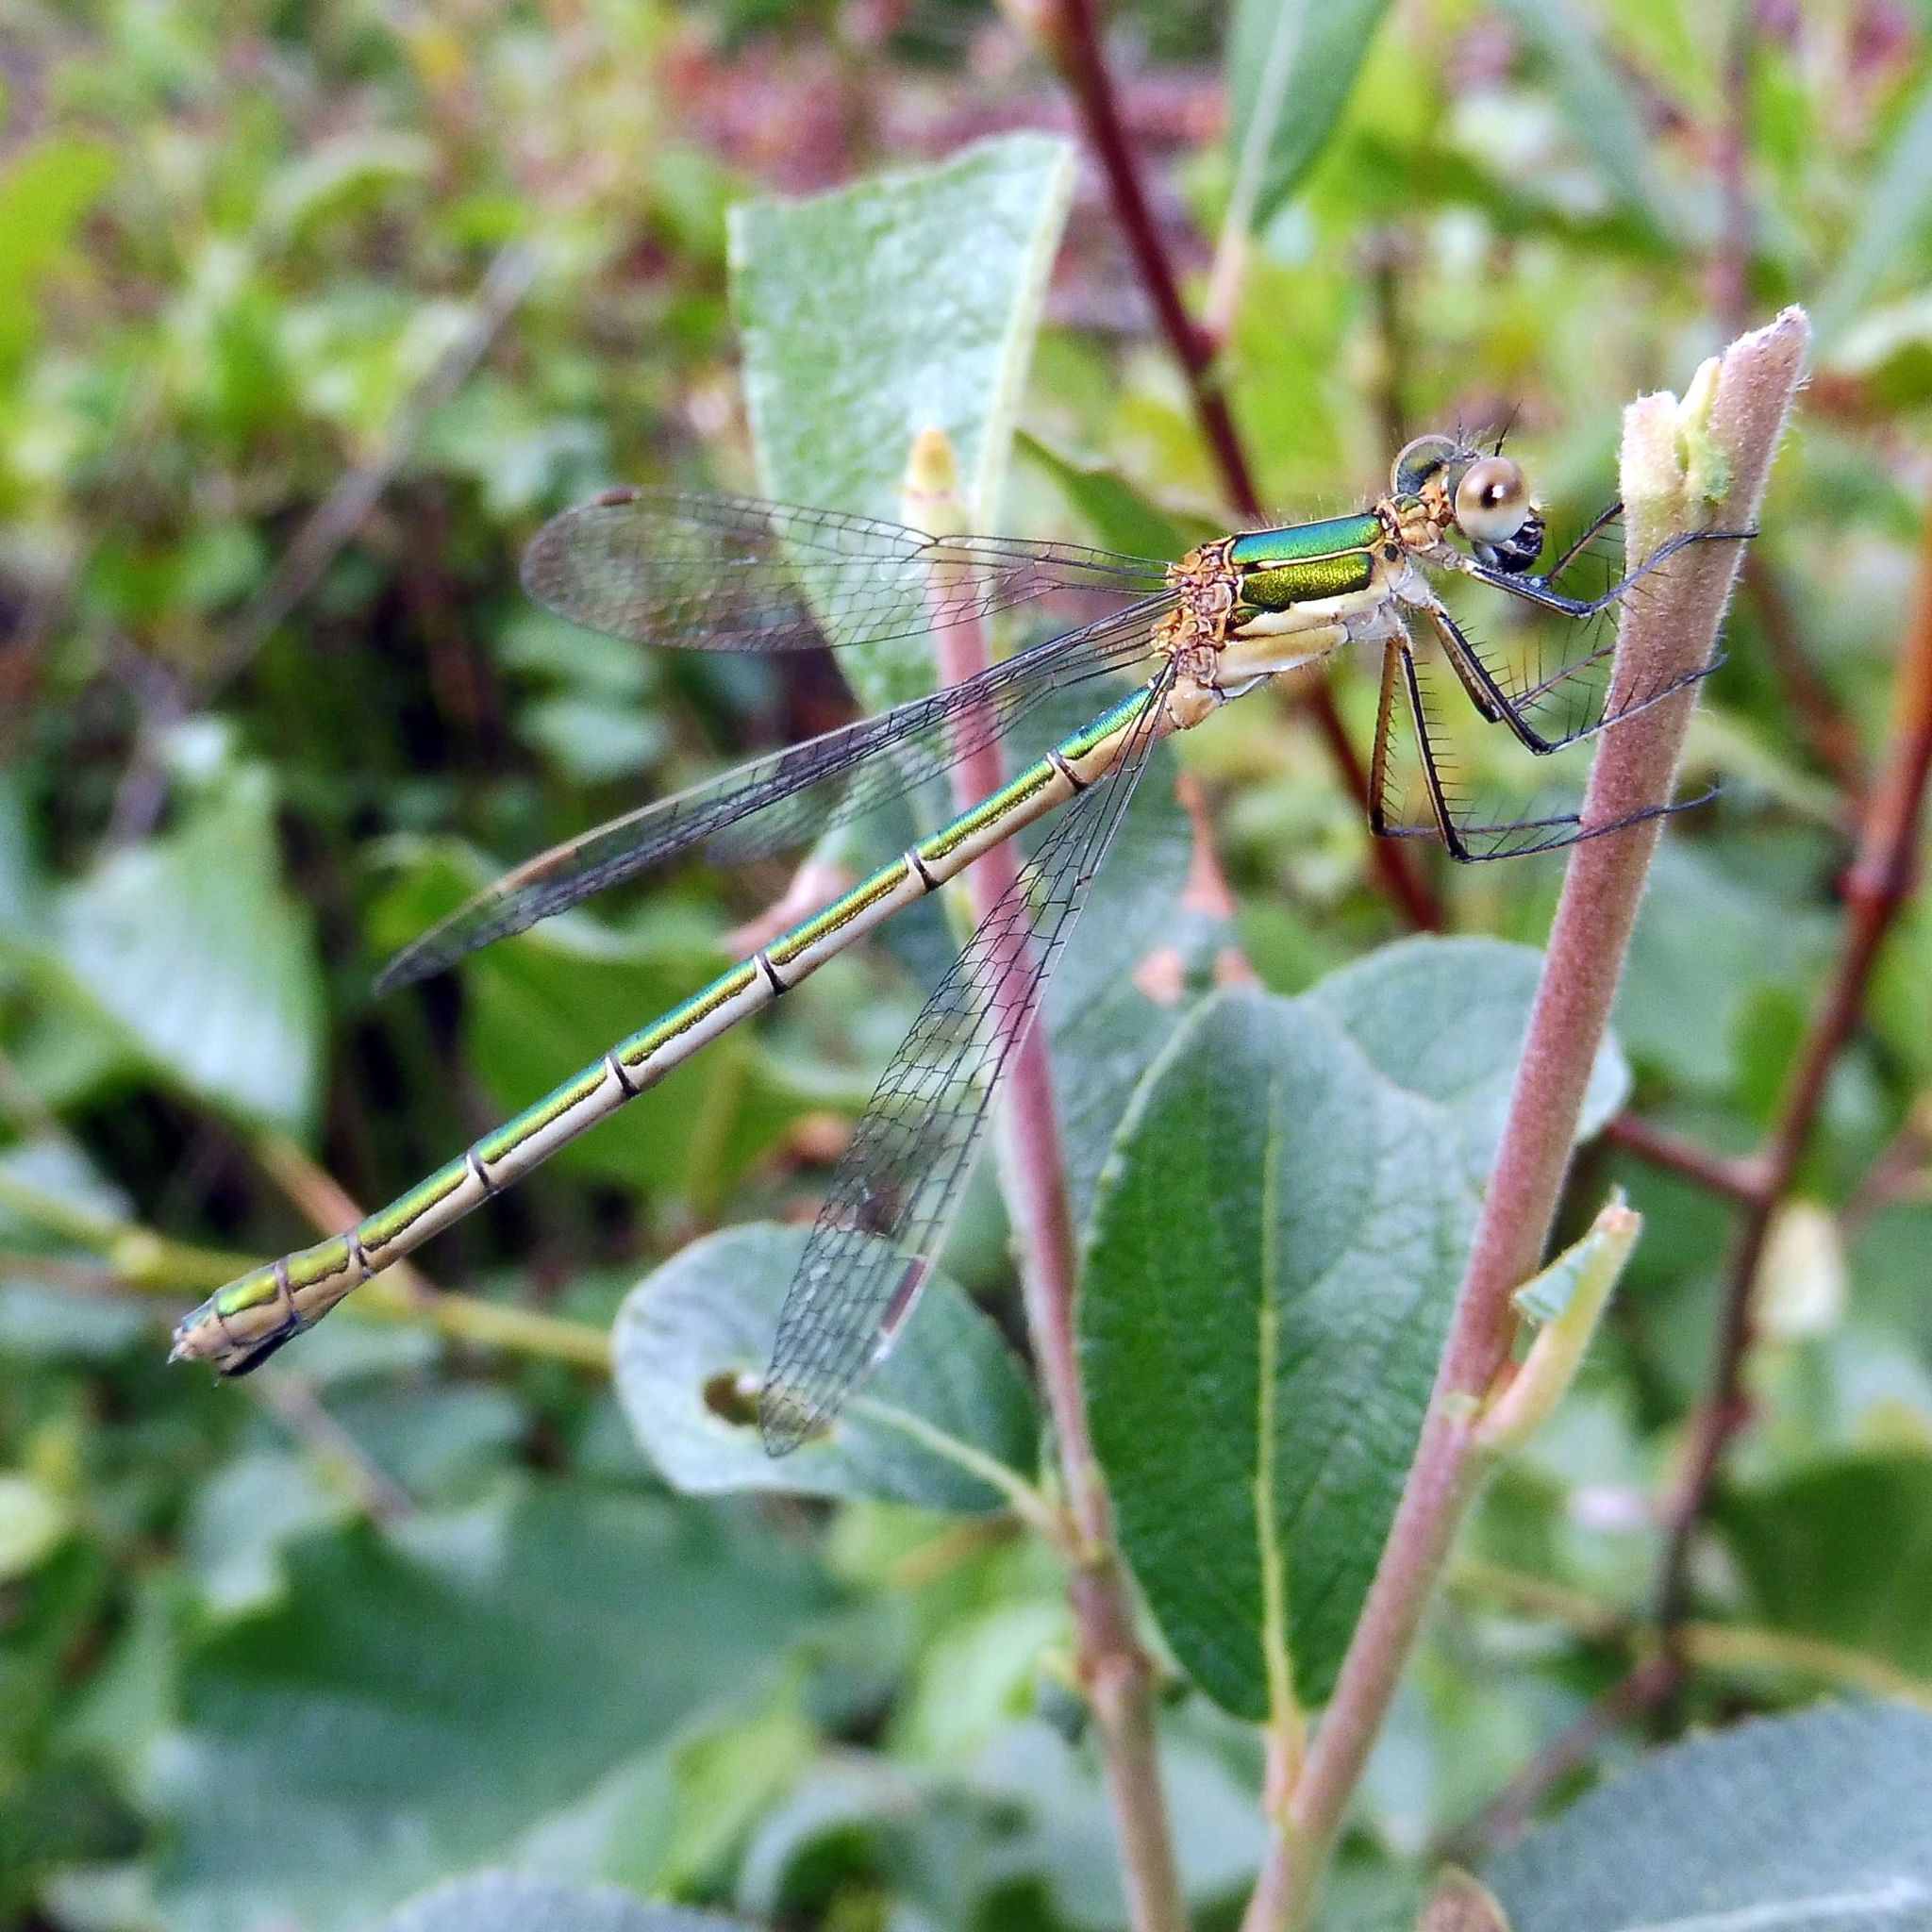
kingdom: Animalia
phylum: Arthropoda
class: Insecta
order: Odonata
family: Lestidae
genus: Lestes
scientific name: Lestes sponsa
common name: Common spreadwing
